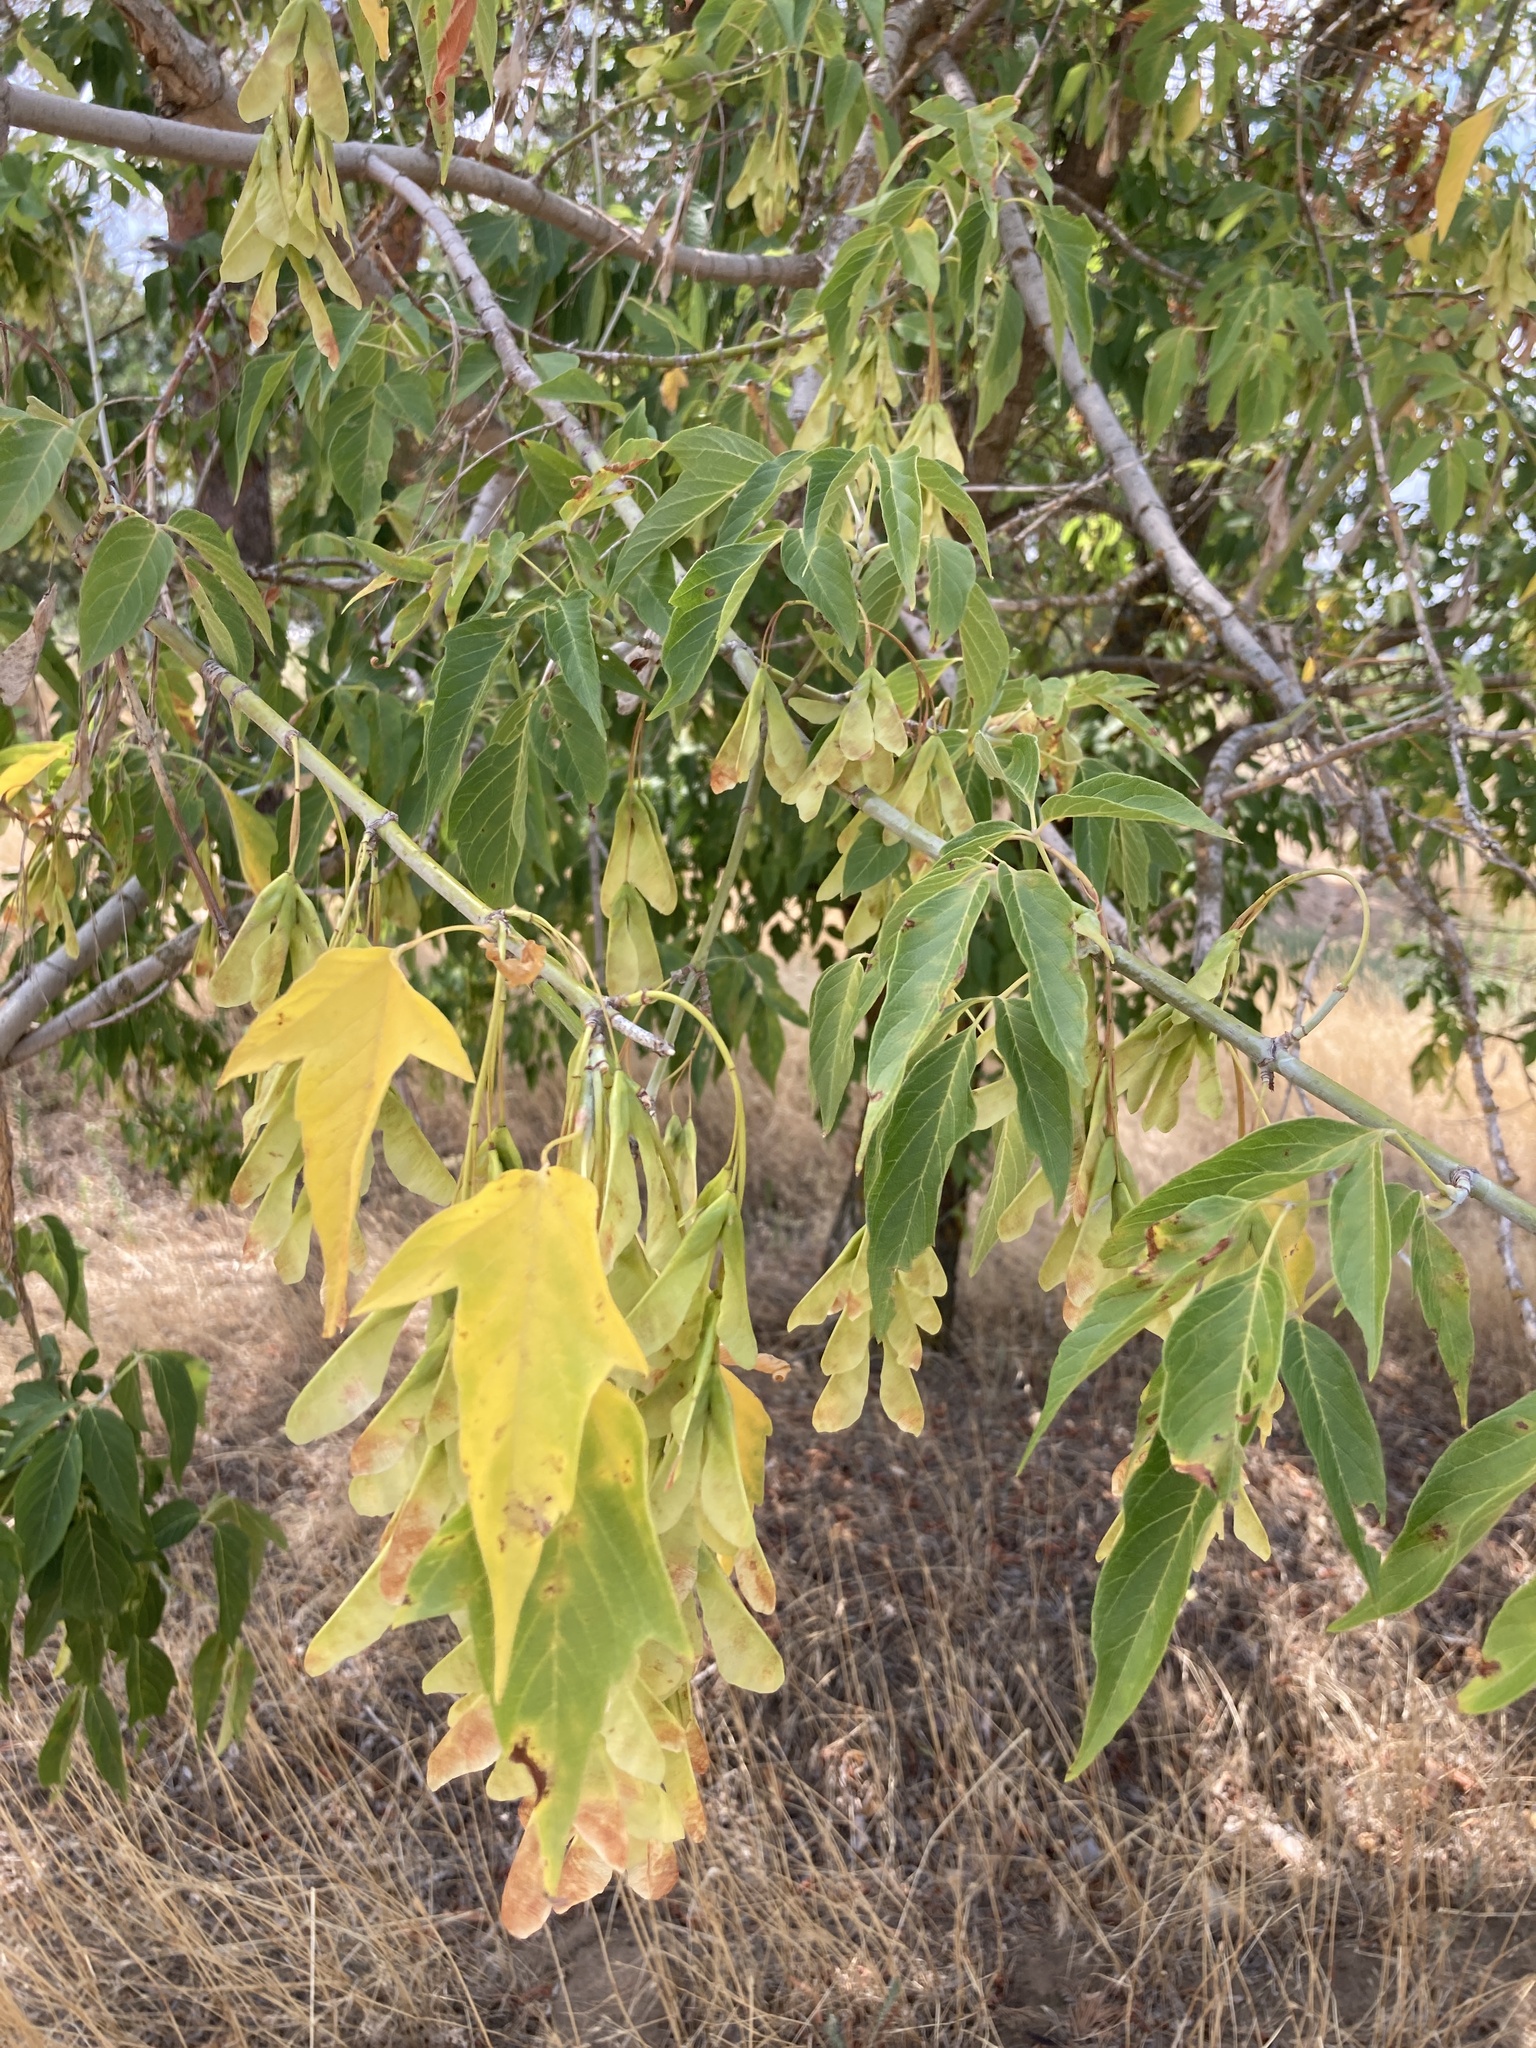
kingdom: Plantae
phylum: Tracheophyta
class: Magnoliopsida
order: Sapindales
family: Sapindaceae
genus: Acer
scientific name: Acer negundo
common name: Ashleaf maple
